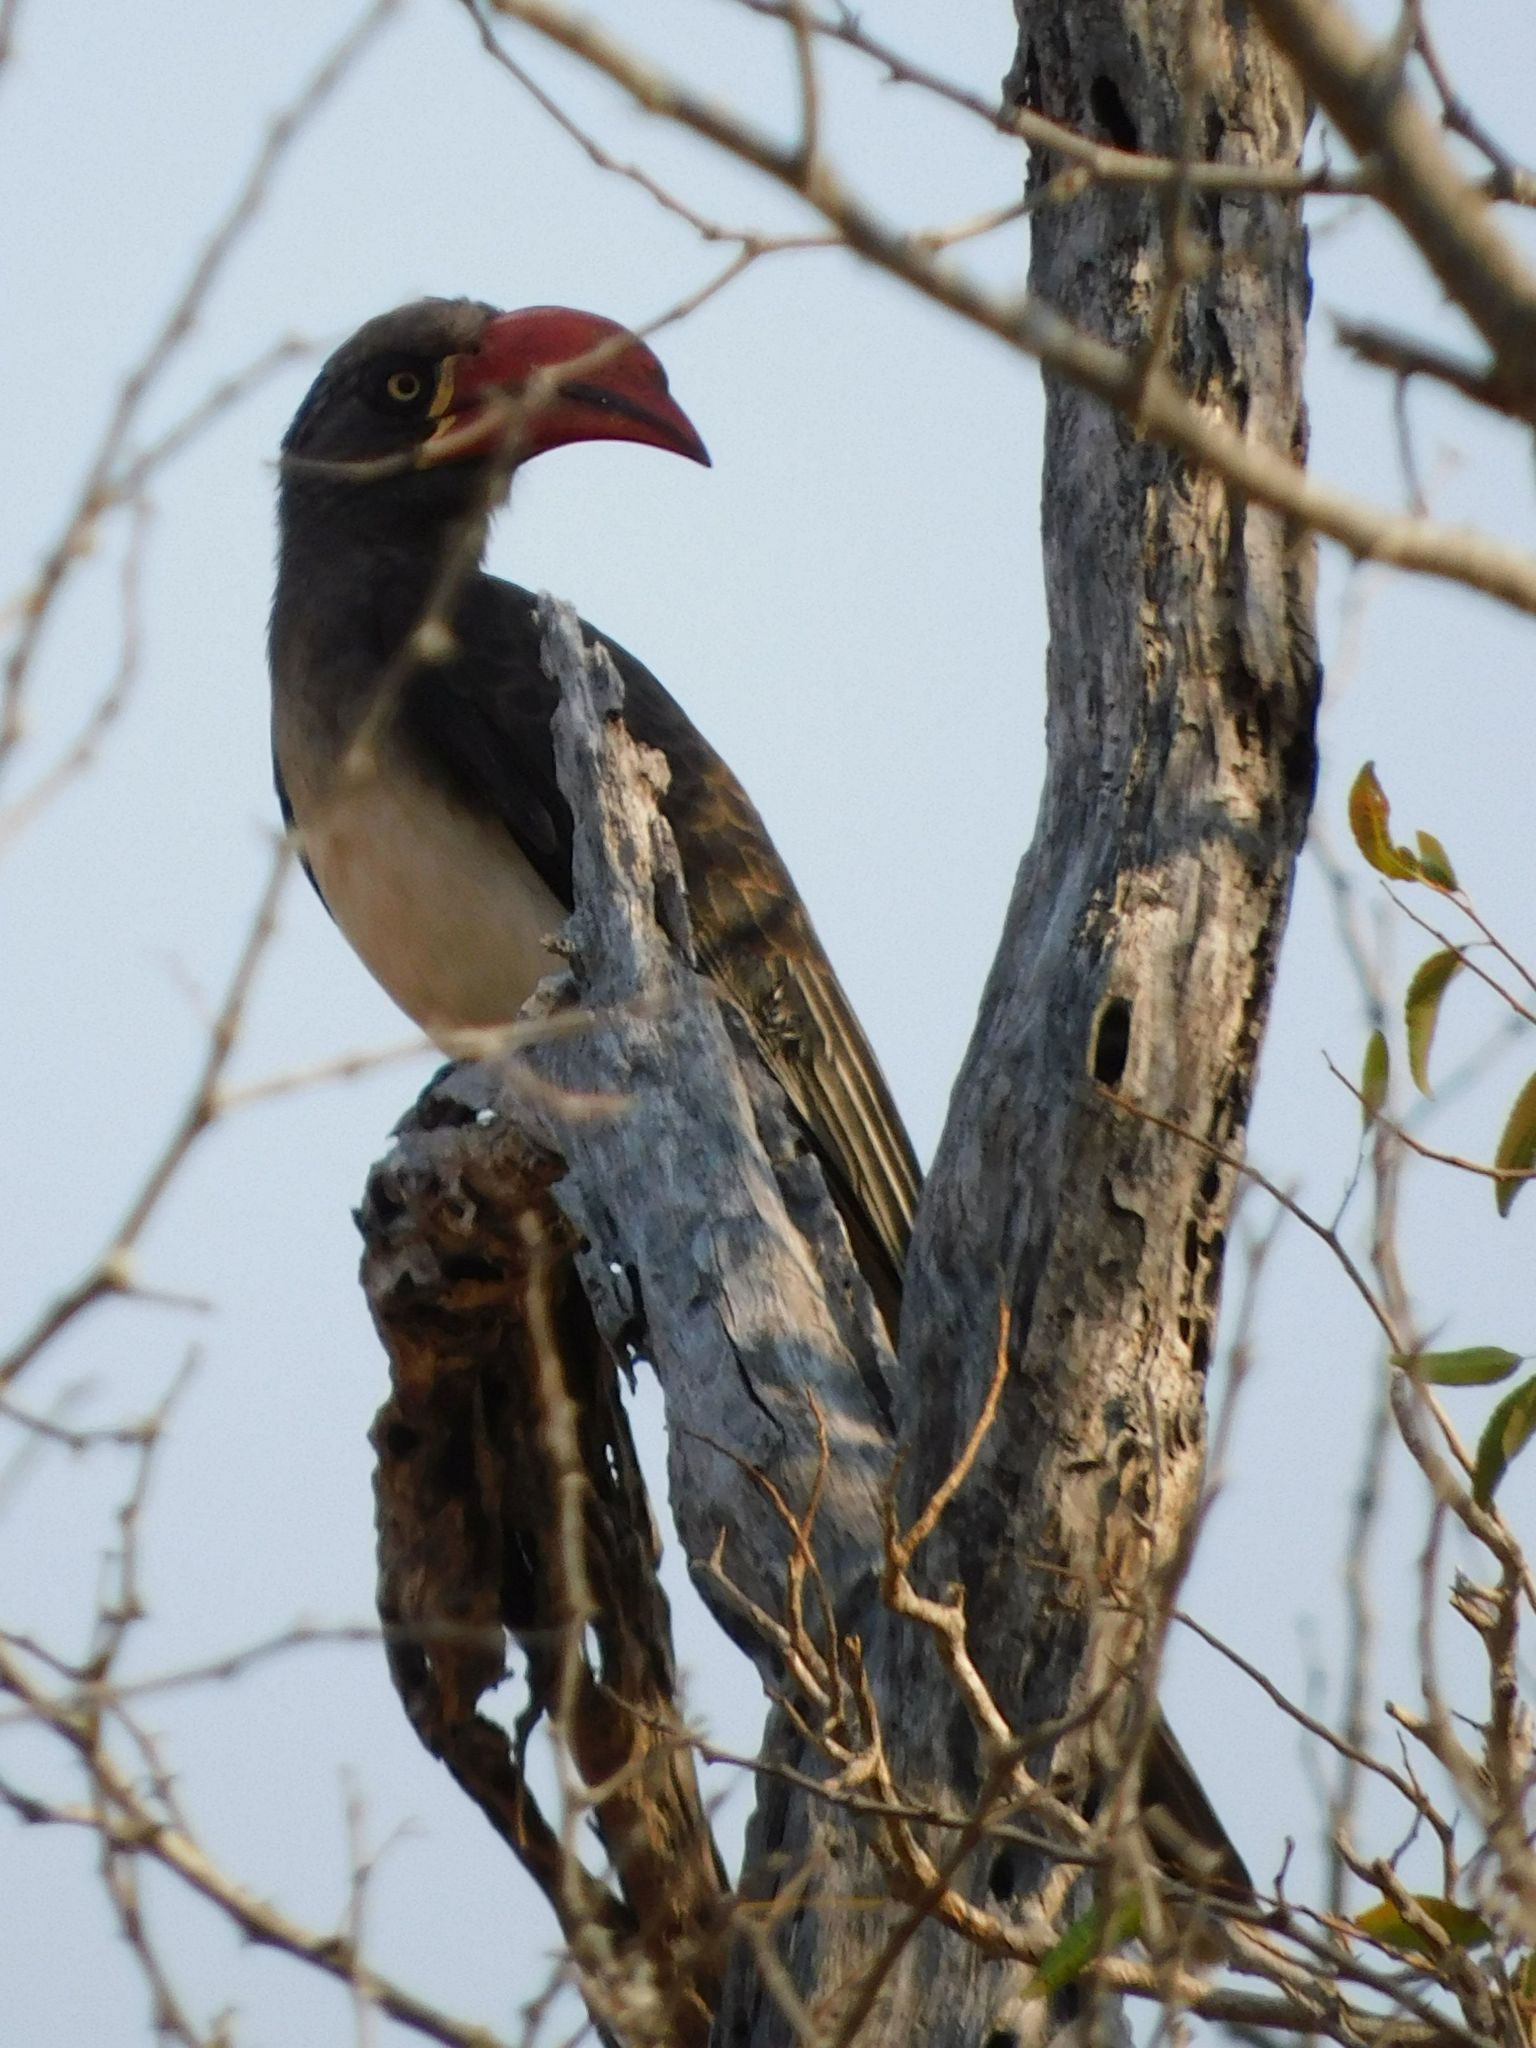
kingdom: Animalia
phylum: Chordata
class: Aves
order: Bucerotiformes
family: Bucerotidae
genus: Lophoceros
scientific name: Lophoceros alboterminatus
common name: Crowned hornbill
